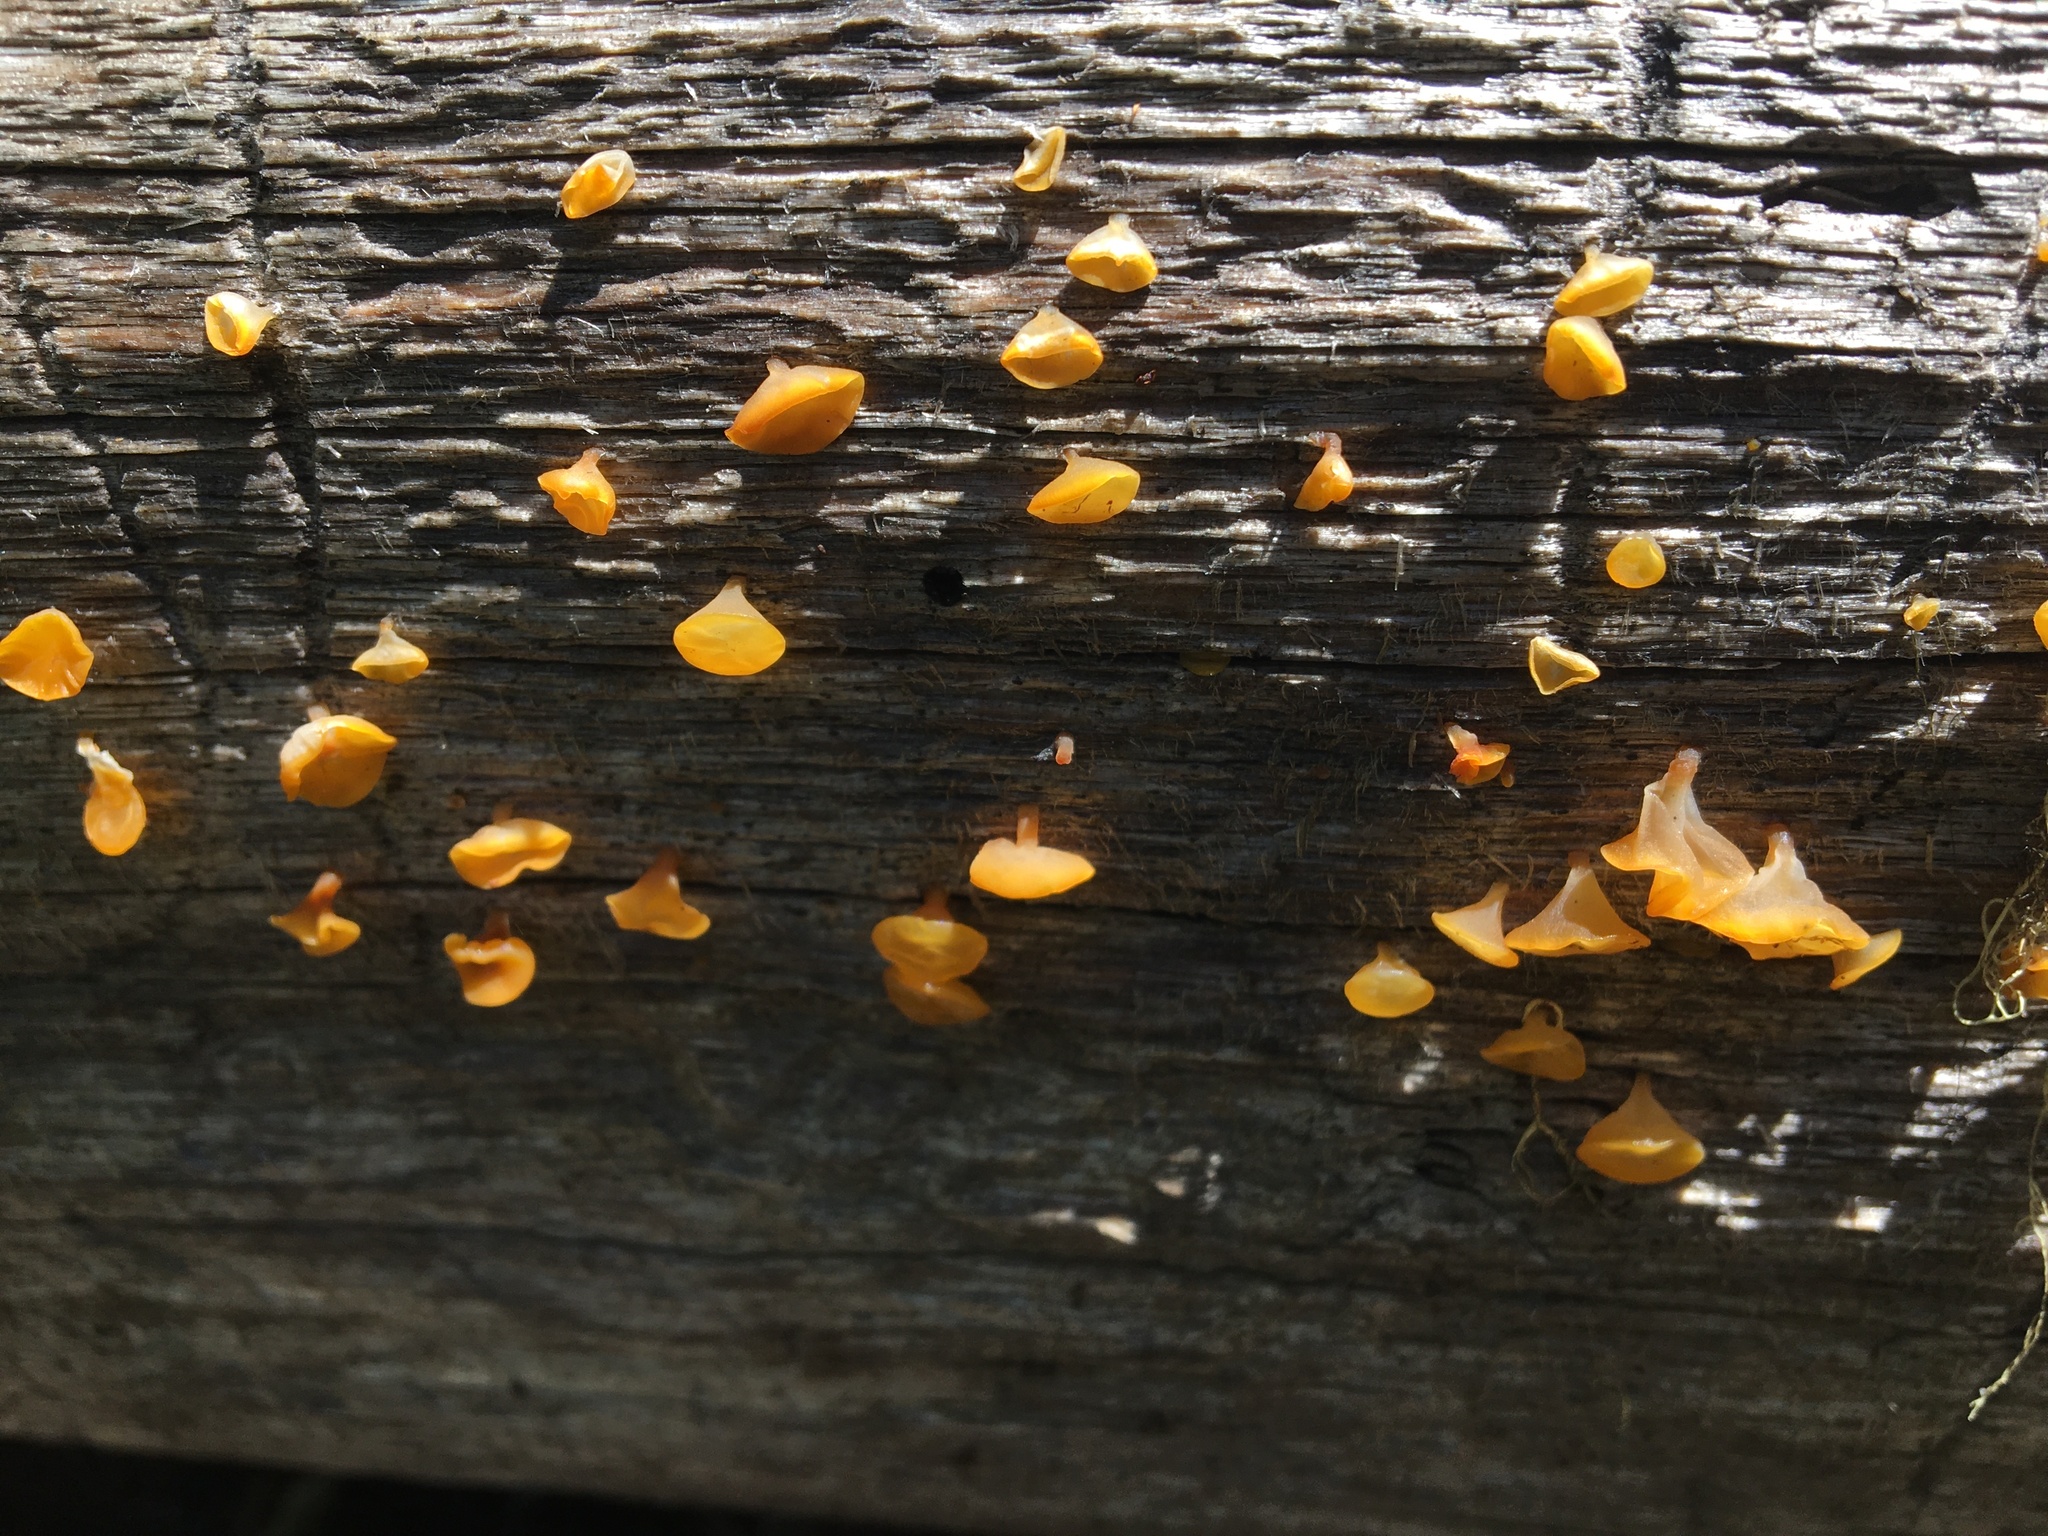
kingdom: Fungi
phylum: Basidiomycota
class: Dacrymycetes
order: Dacrymycetales
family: Dacrymycetaceae
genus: Guepiniopsis
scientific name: Guepiniopsis alpina
